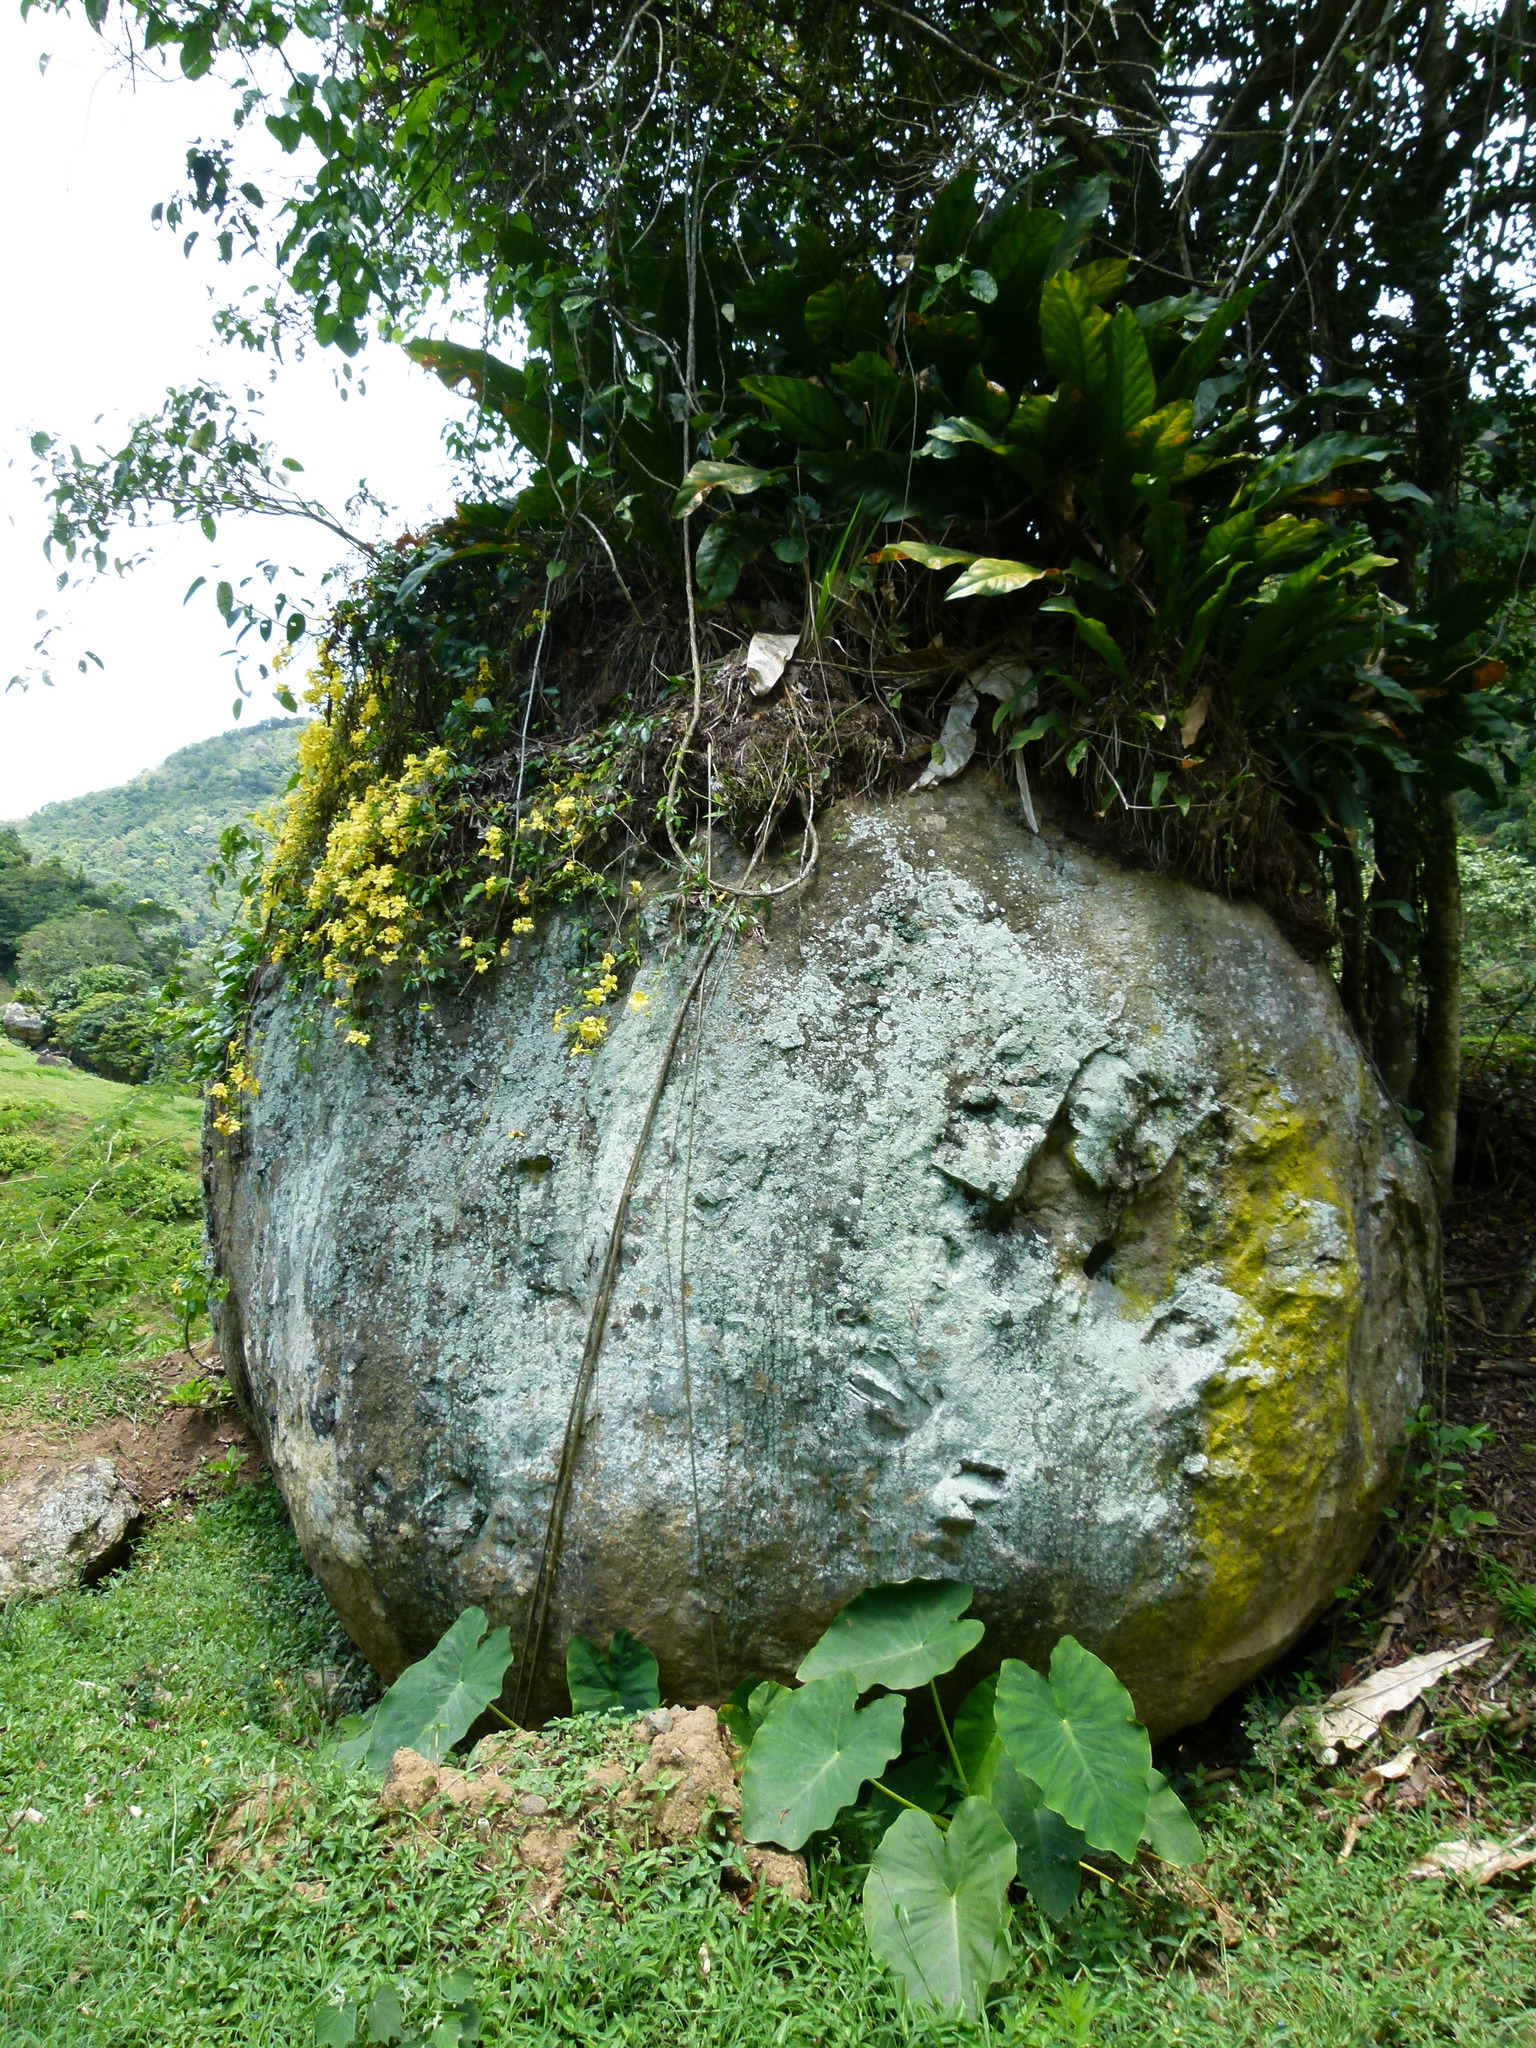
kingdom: Plantae
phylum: Tracheophyta
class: Magnoliopsida
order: Lamiales
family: Bignoniaceae
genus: Dolichandra
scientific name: Dolichandra unguis-cati
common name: Catclaw vine
